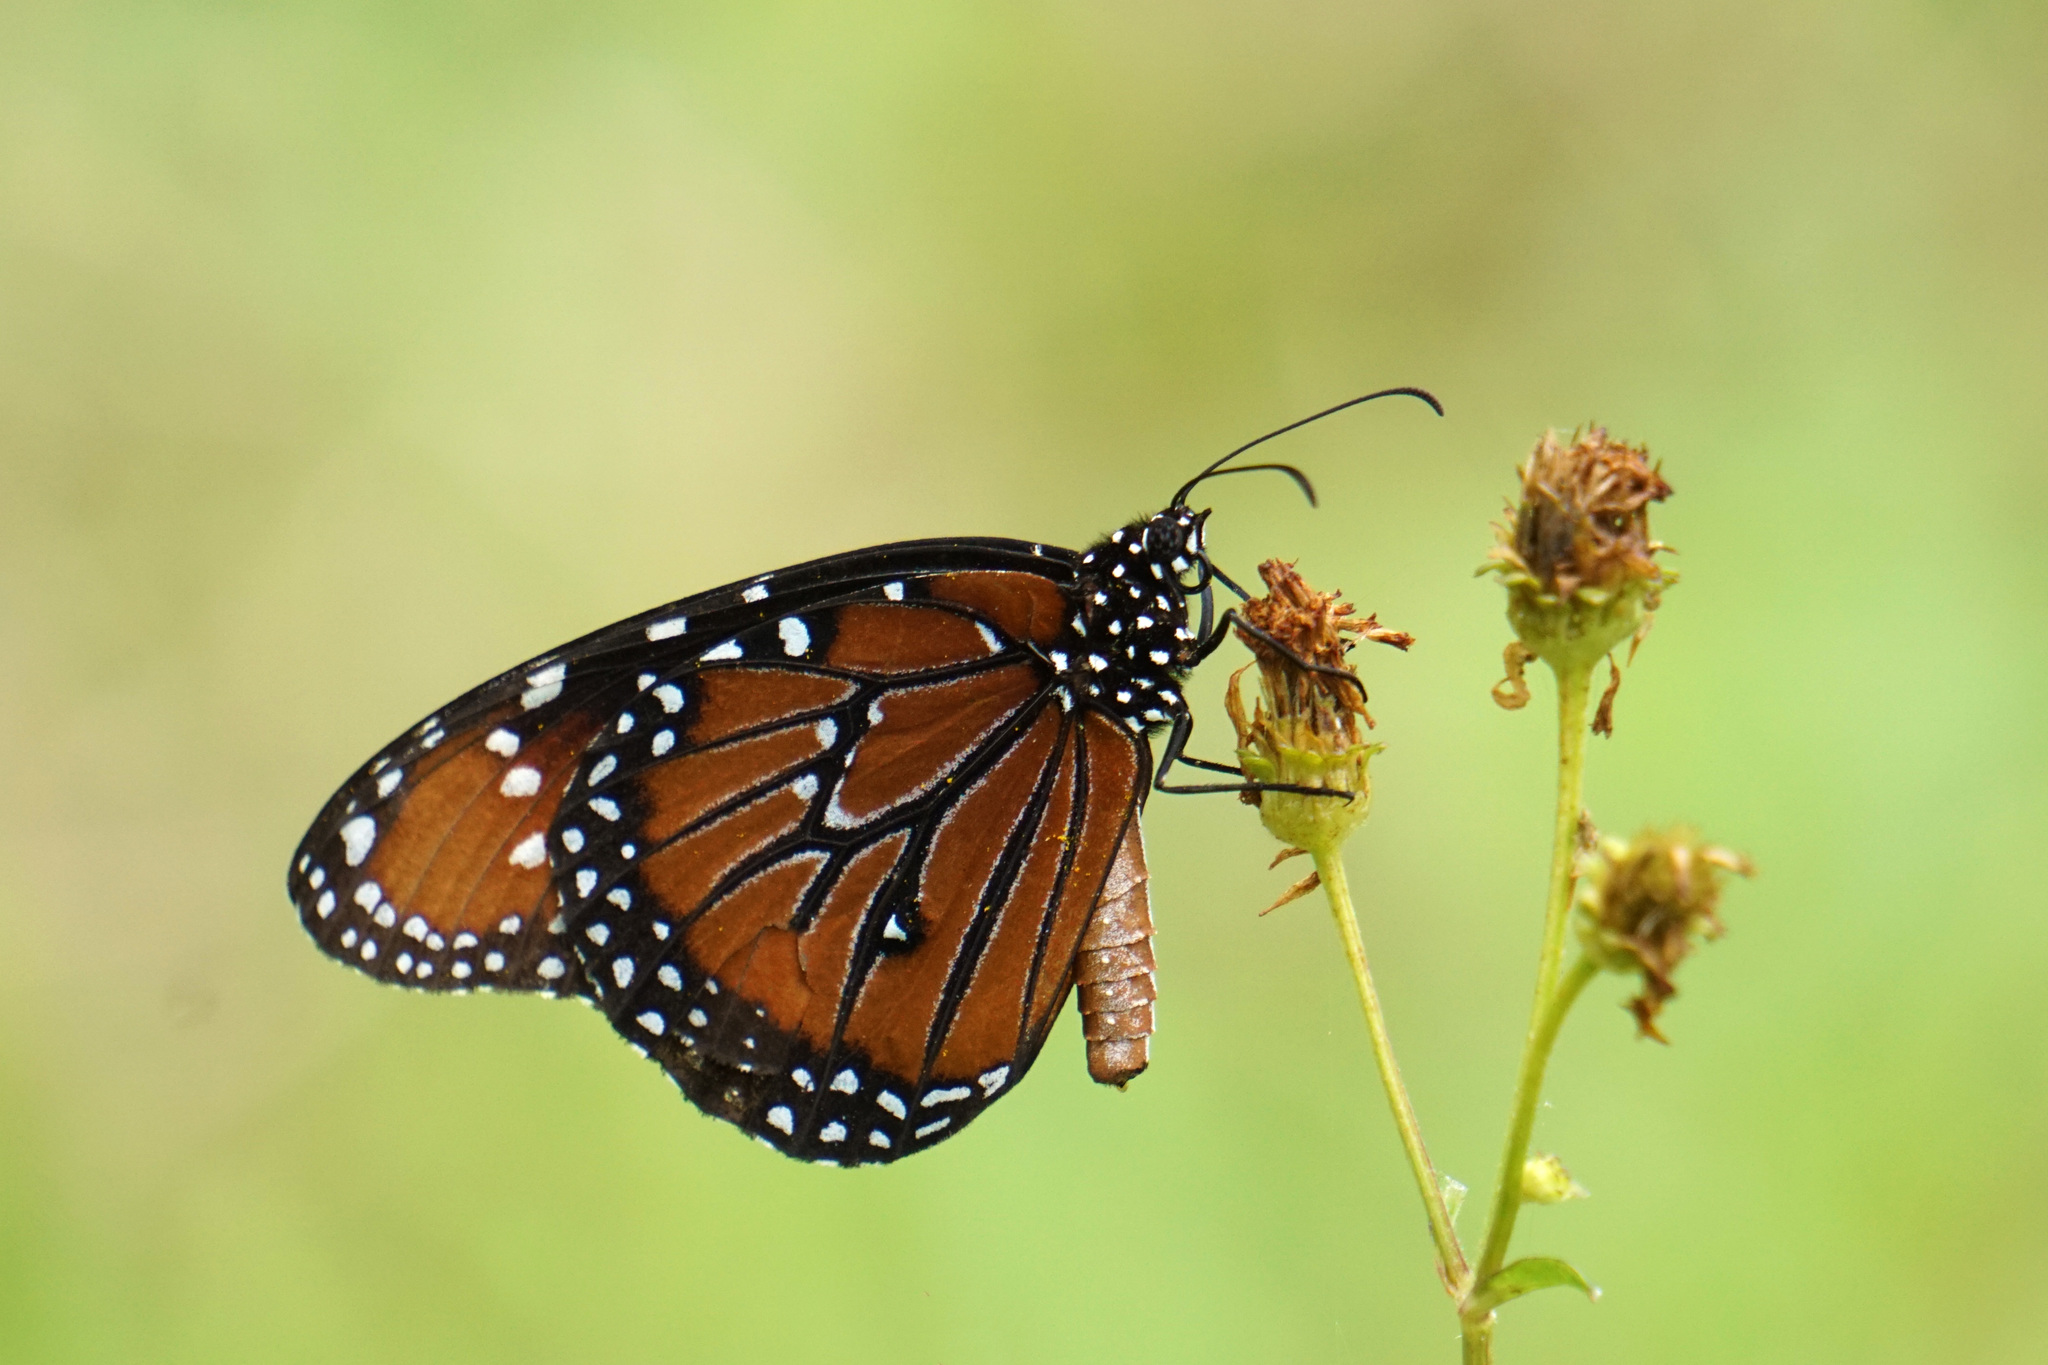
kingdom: Animalia
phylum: Arthropoda
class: Insecta
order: Lepidoptera
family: Nymphalidae
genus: Danaus
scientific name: Danaus gilippus
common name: Queen
